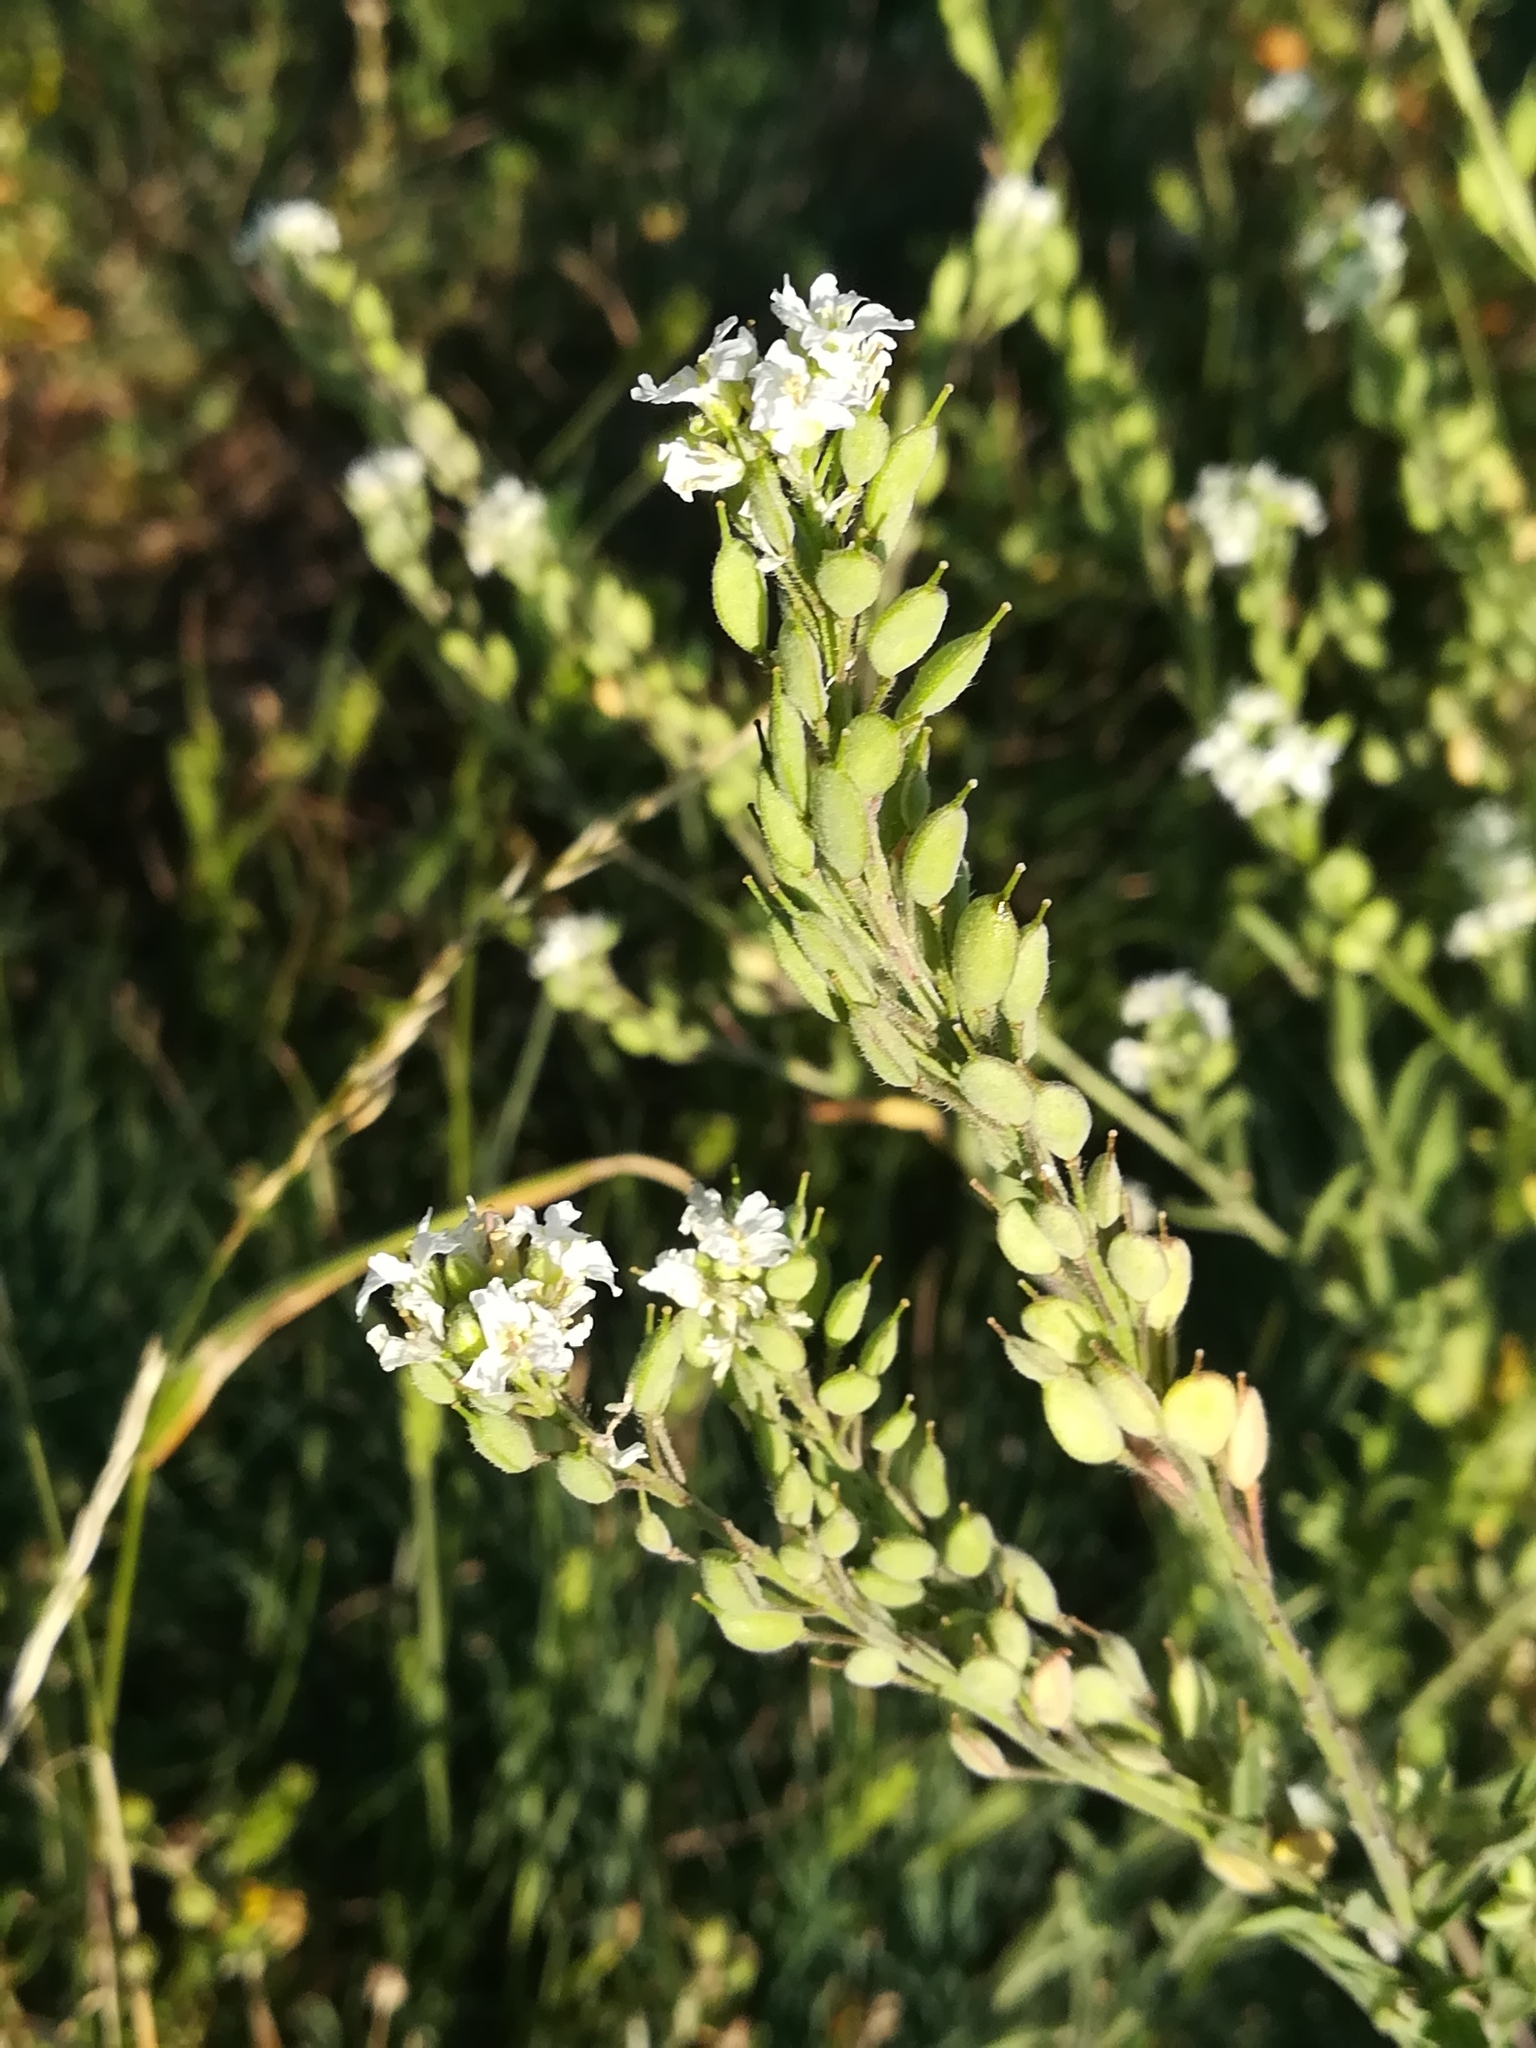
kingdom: Plantae
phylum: Tracheophyta
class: Magnoliopsida
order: Brassicales
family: Brassicaceae
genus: Berteroa
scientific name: Berteroa incana
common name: Hoary alison
